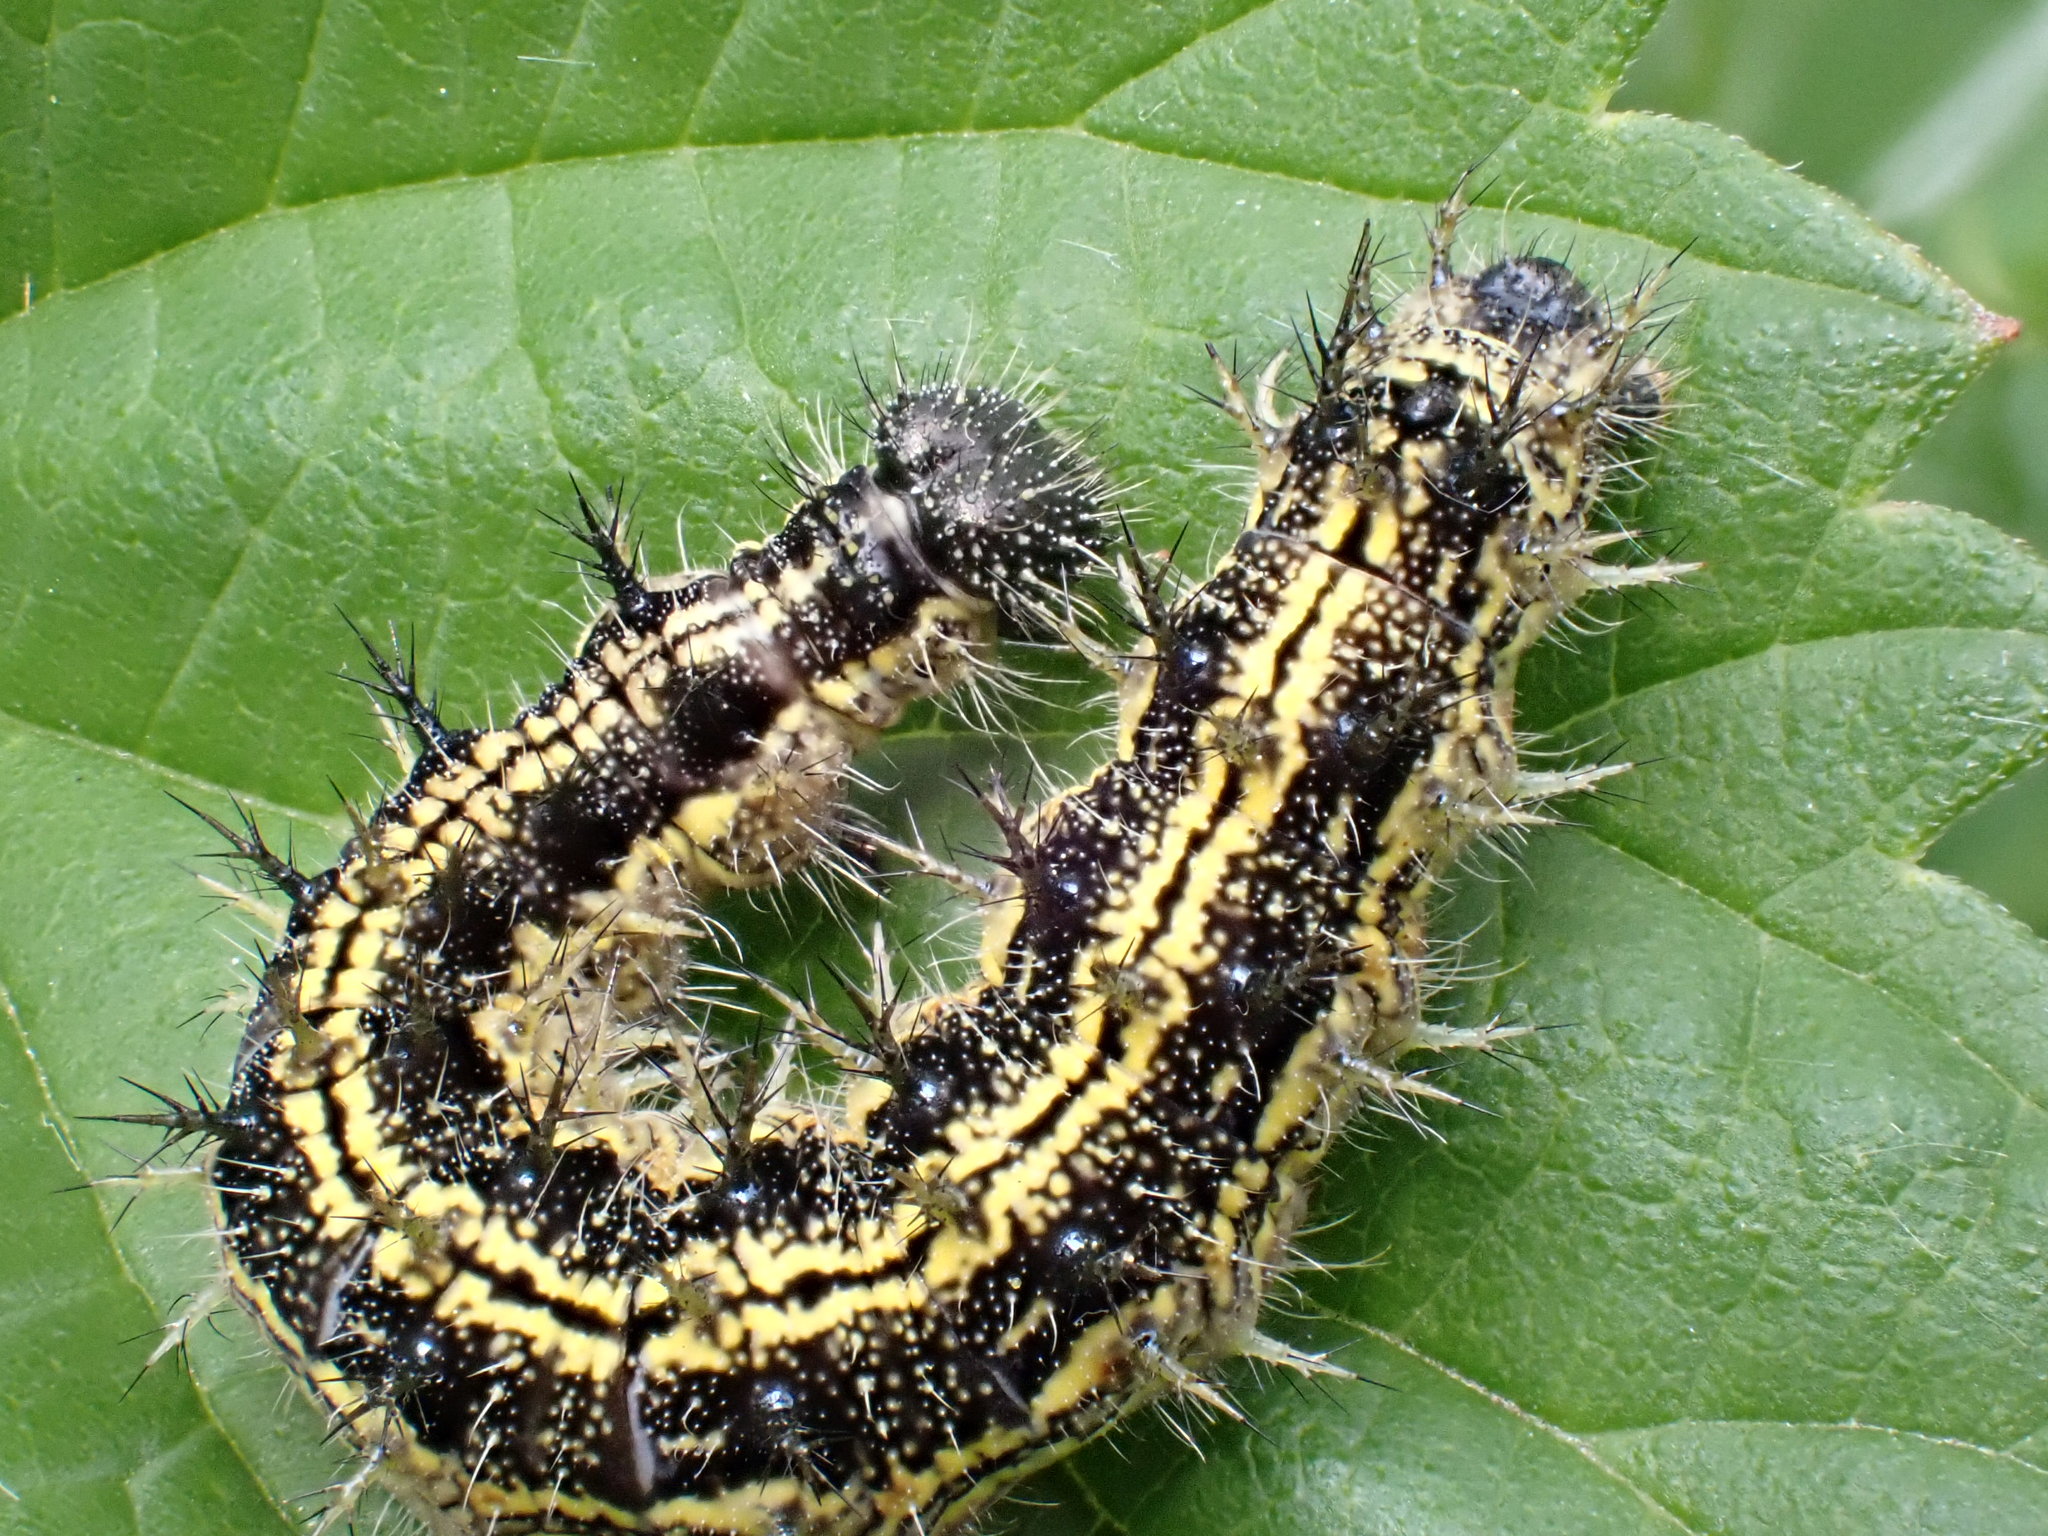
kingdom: Animalia
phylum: Arthropoda
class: Insecta
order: Lepidoptera
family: Nymphalidae
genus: Aglais
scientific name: Aglais urticae
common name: Small tortoiseshell
